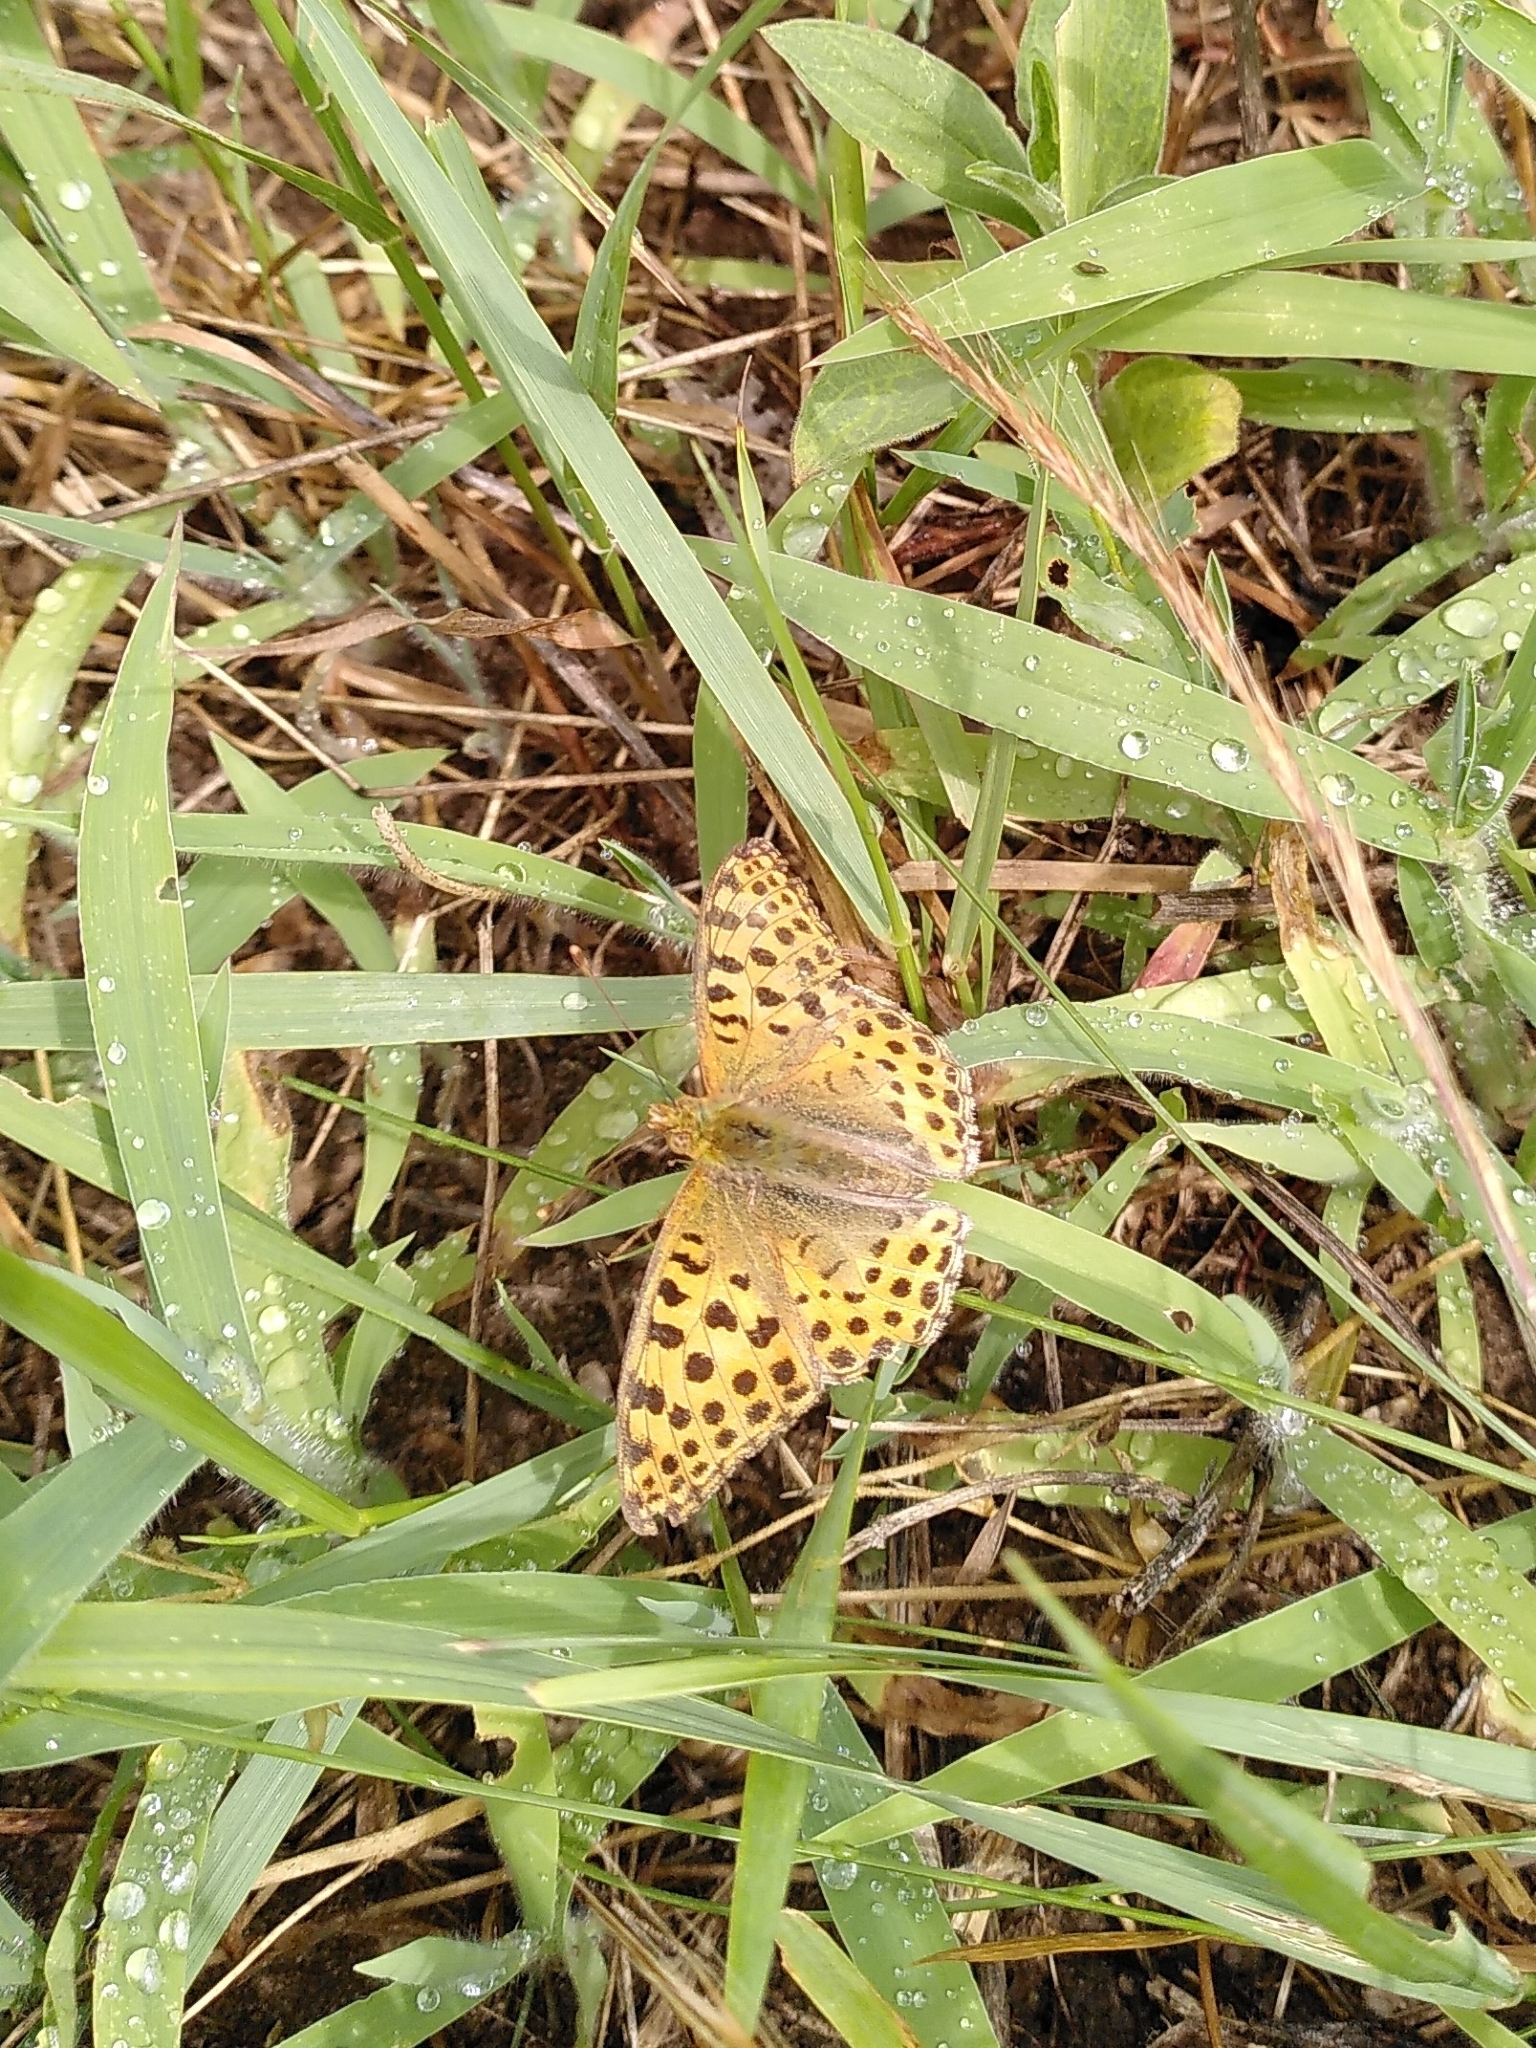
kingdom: Animalia
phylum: Arthropoda
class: Insecta
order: Lepidoptera
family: Nymphalidae
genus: Issoria
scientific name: Issoria lathonia
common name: Queen of spain fritillary
